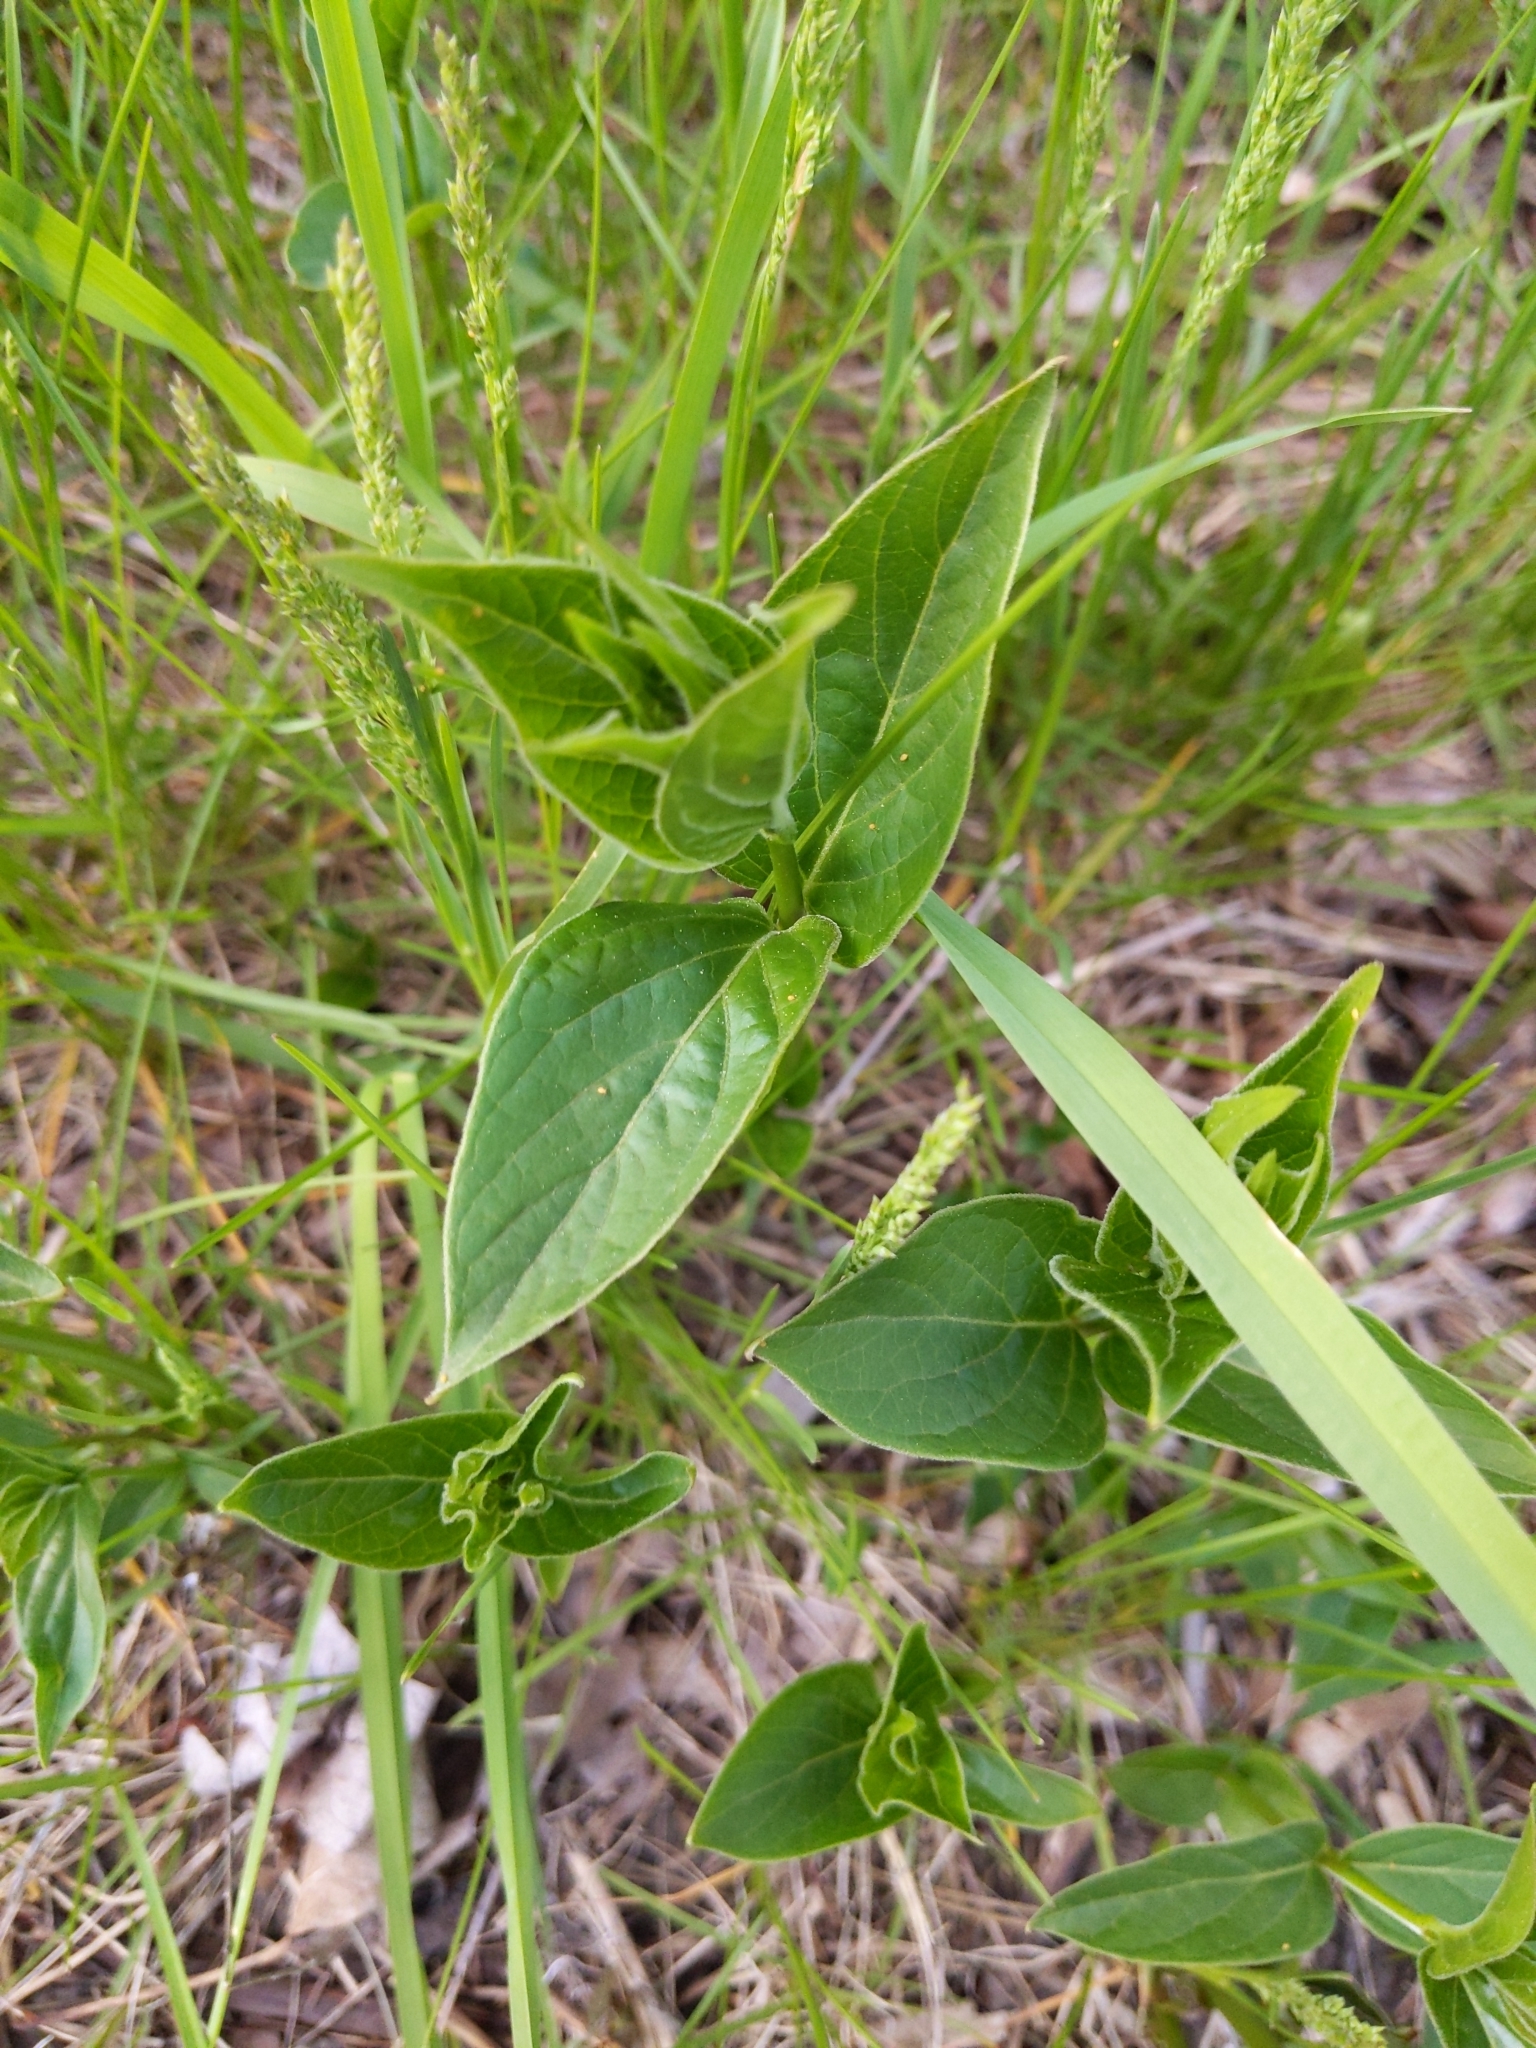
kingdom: Plantae
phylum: Tracheophyta
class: Magnoliopsida
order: Gentianales
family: Apocynaceae
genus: Vincetoxicum
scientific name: Vincetoxicum rossicum
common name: Dog-strangling vine
